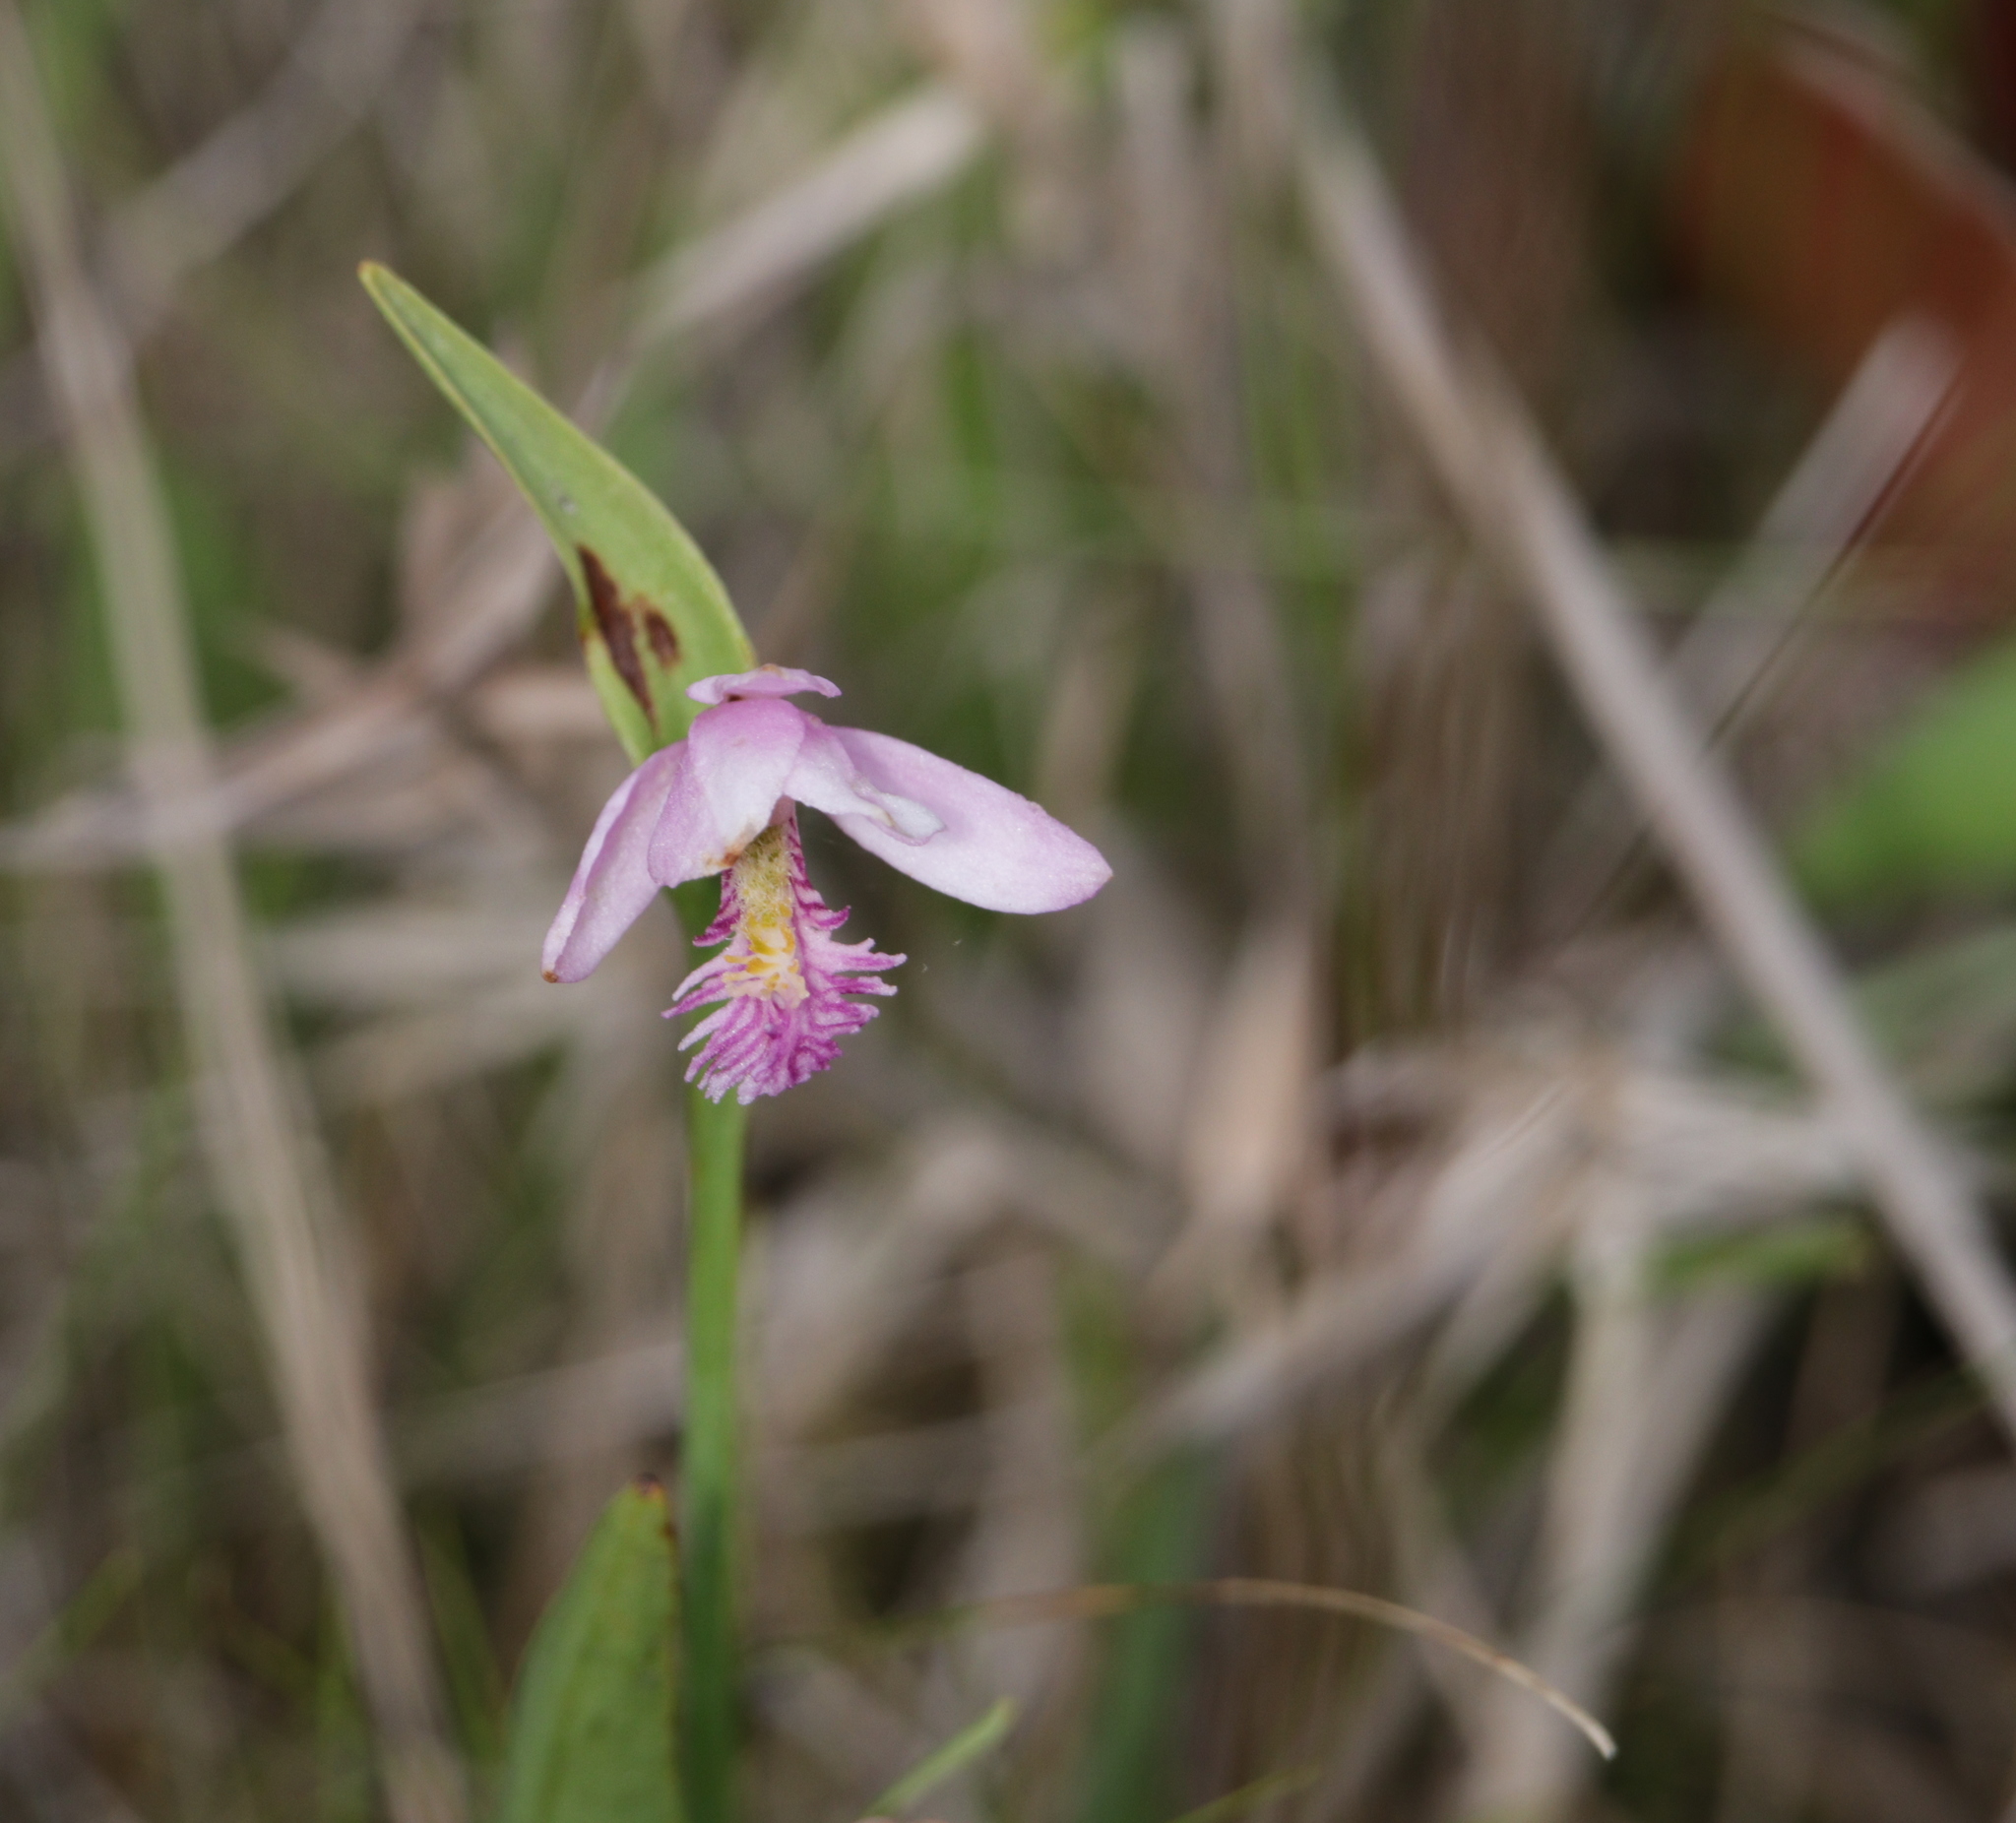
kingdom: Plantae
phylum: Tracheophyta
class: Liliopsida
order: Asparagales
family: Orchidaceae
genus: Pogonia
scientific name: Pogonia ophioglossoides
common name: Rose pogonia
